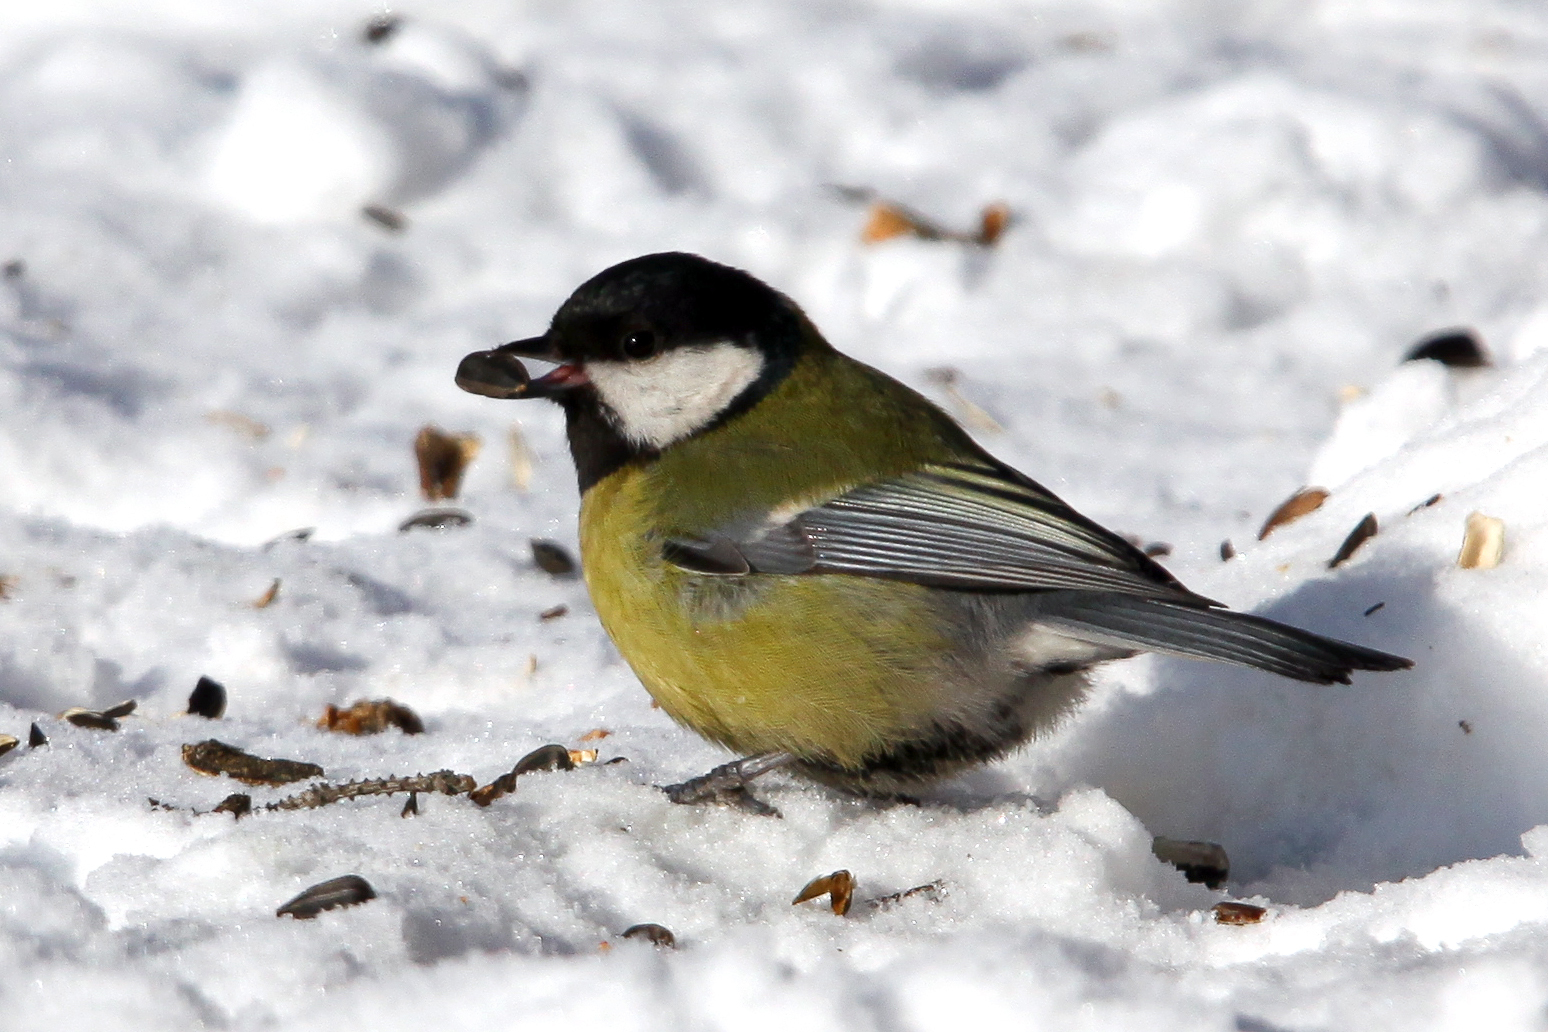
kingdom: Animalia
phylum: Chordata
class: Aves
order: Passeriformes
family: Paridae
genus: Parus
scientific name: Parus major
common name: Great tit
